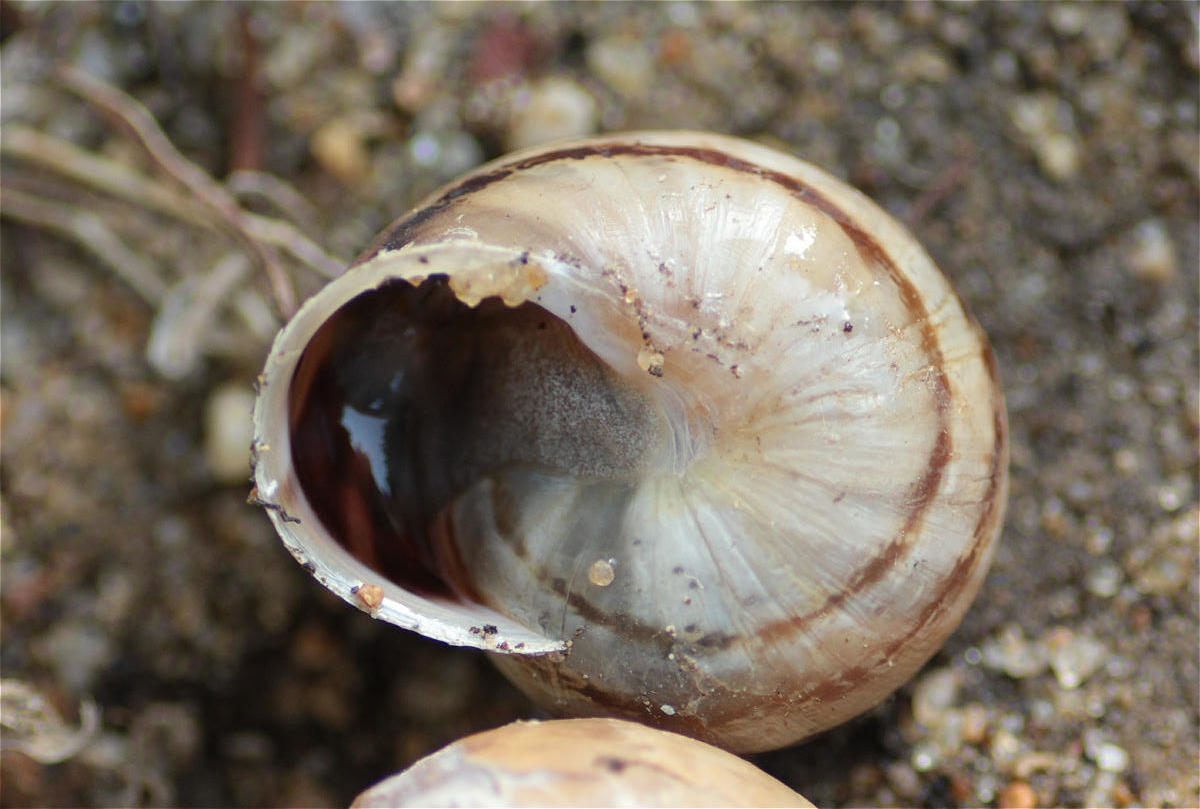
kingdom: Animalia
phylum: Mollusca
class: Gastropoda
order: Stylommatophora
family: Helicidae
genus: Eobania
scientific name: Eobania vermiculata
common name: Chocolateband snail
